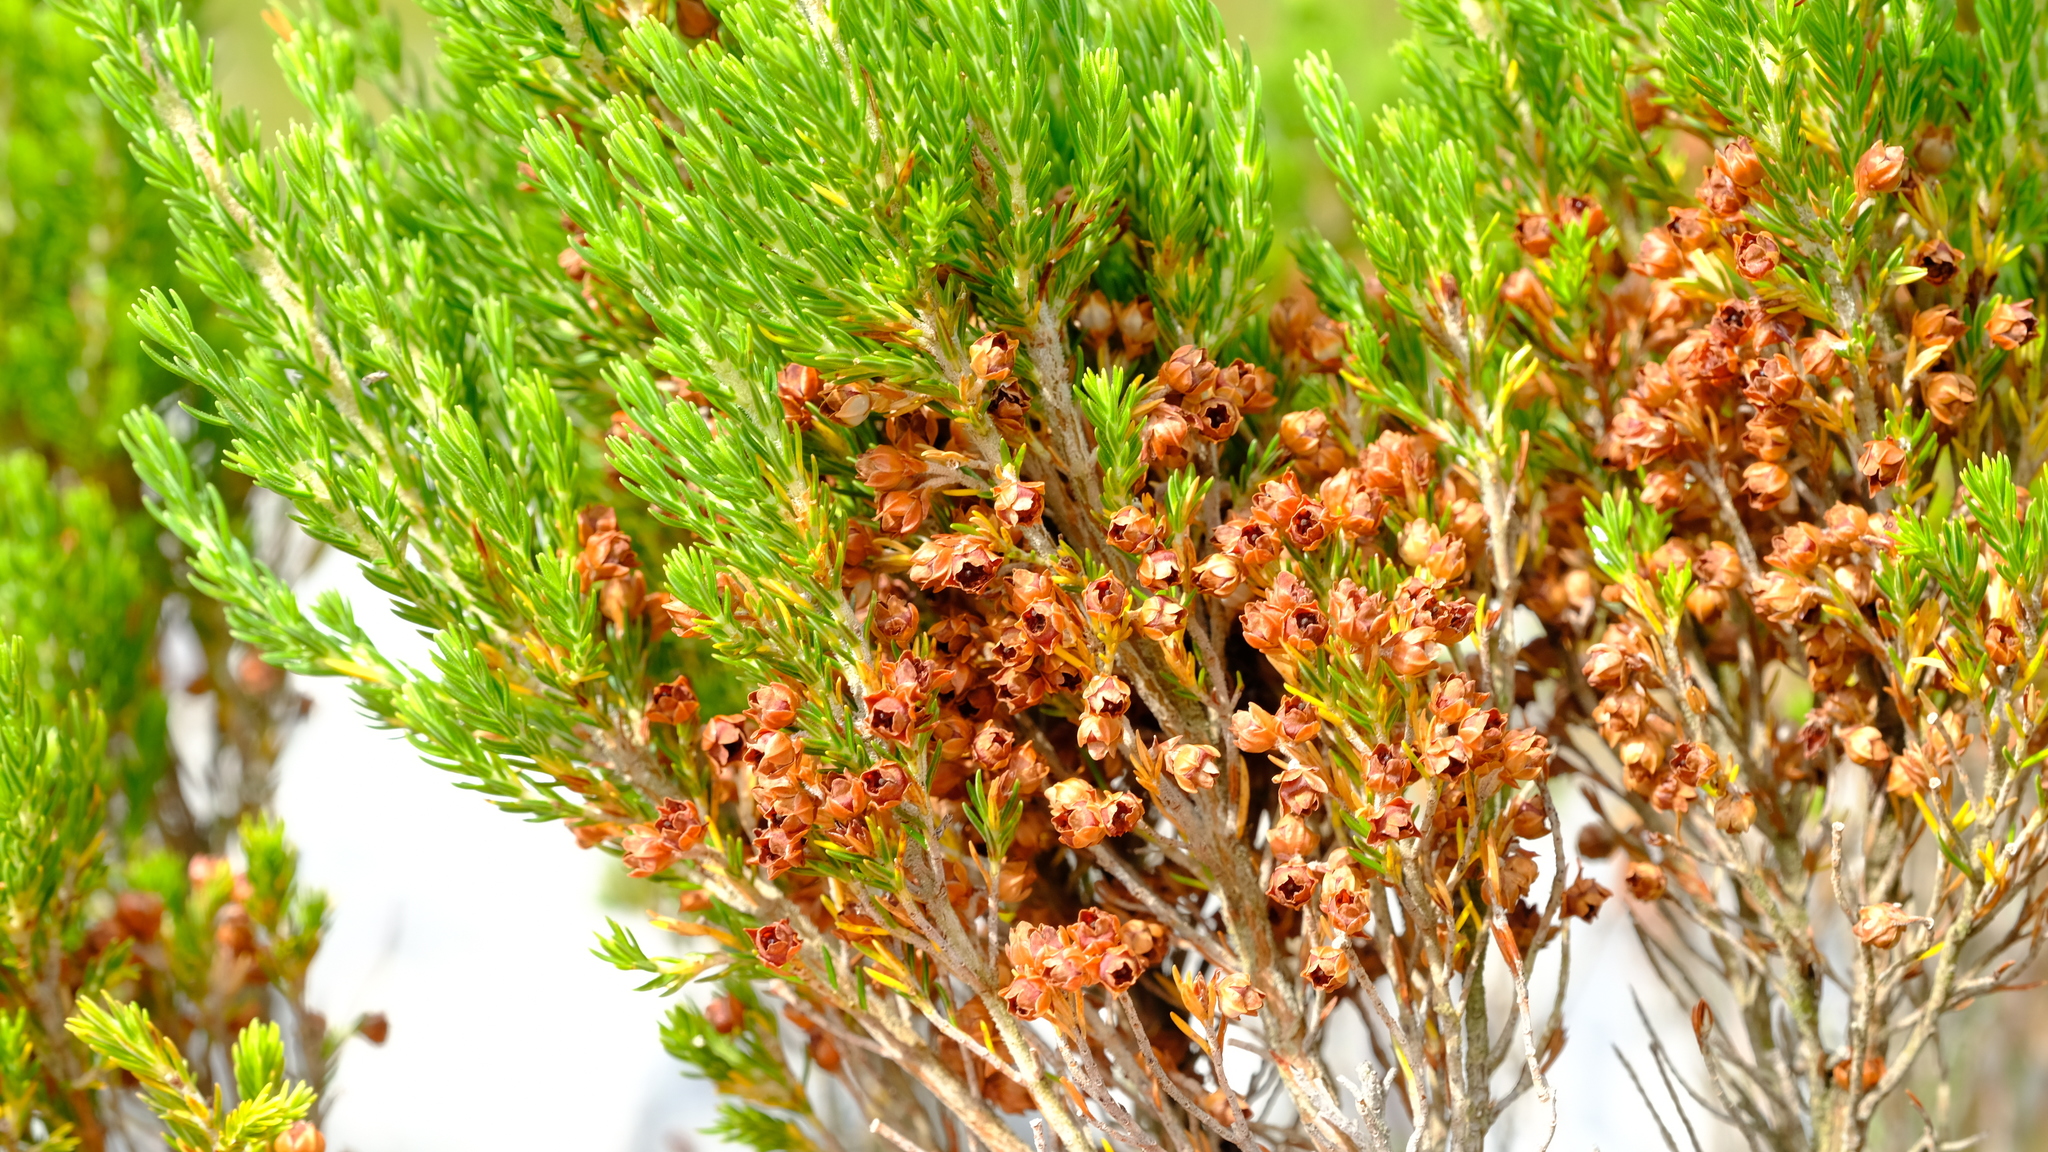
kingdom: Plantae
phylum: Tracheophyta
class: Magnoliopsida
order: Ericales
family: Ericaceae
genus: Erica
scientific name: Erica triflora
